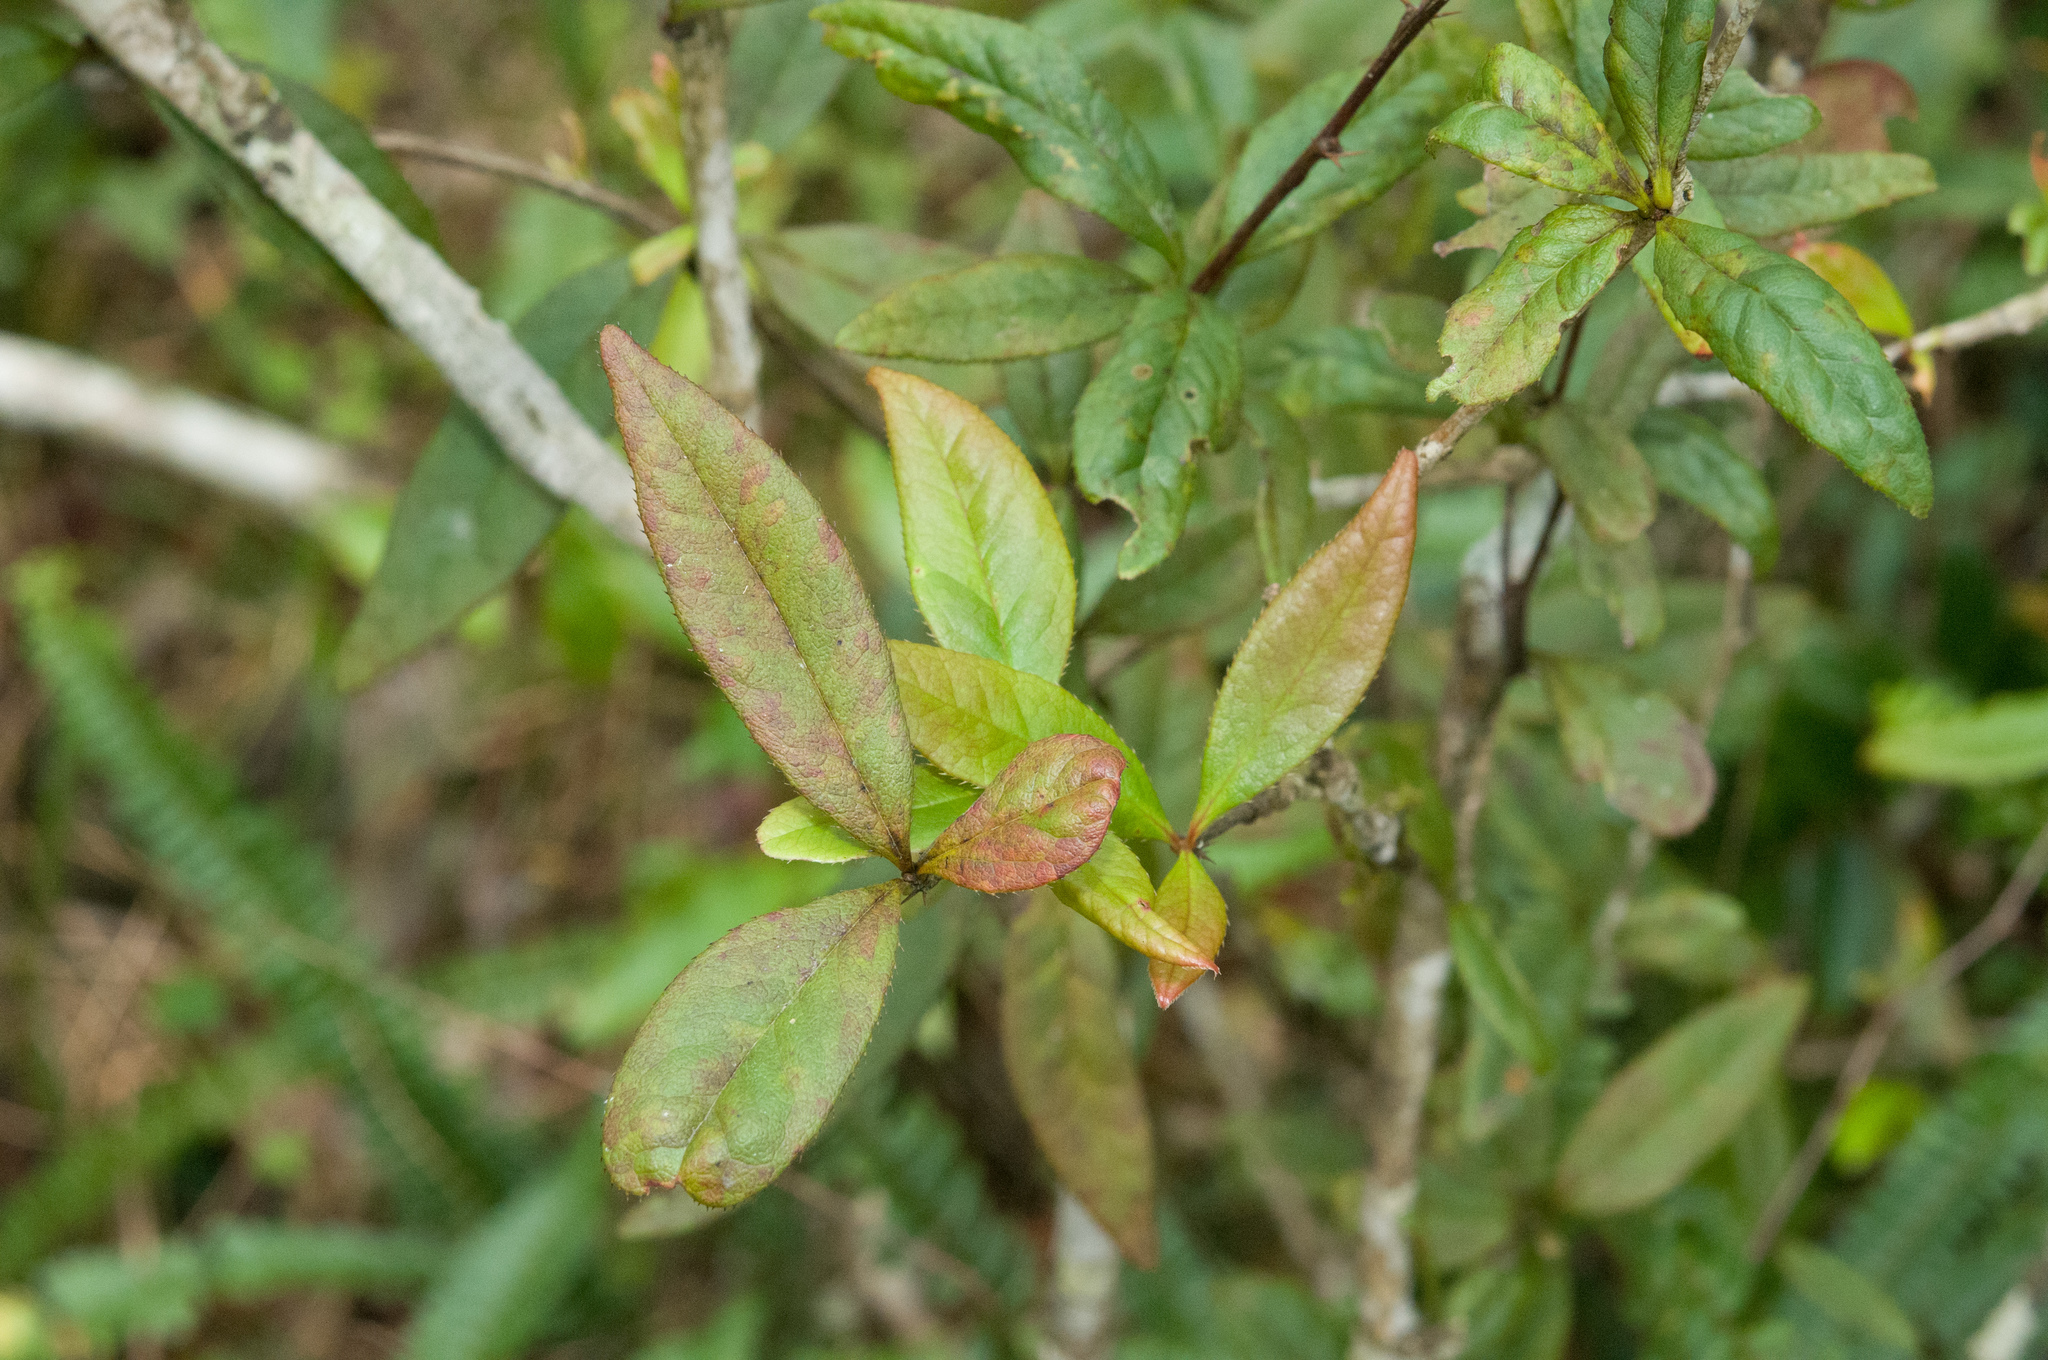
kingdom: Plantae
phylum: Tracheophyta
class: Magnoliopsida
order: Ranunculales
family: Berberidaceae
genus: Berberis
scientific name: Berberis schaaliae
